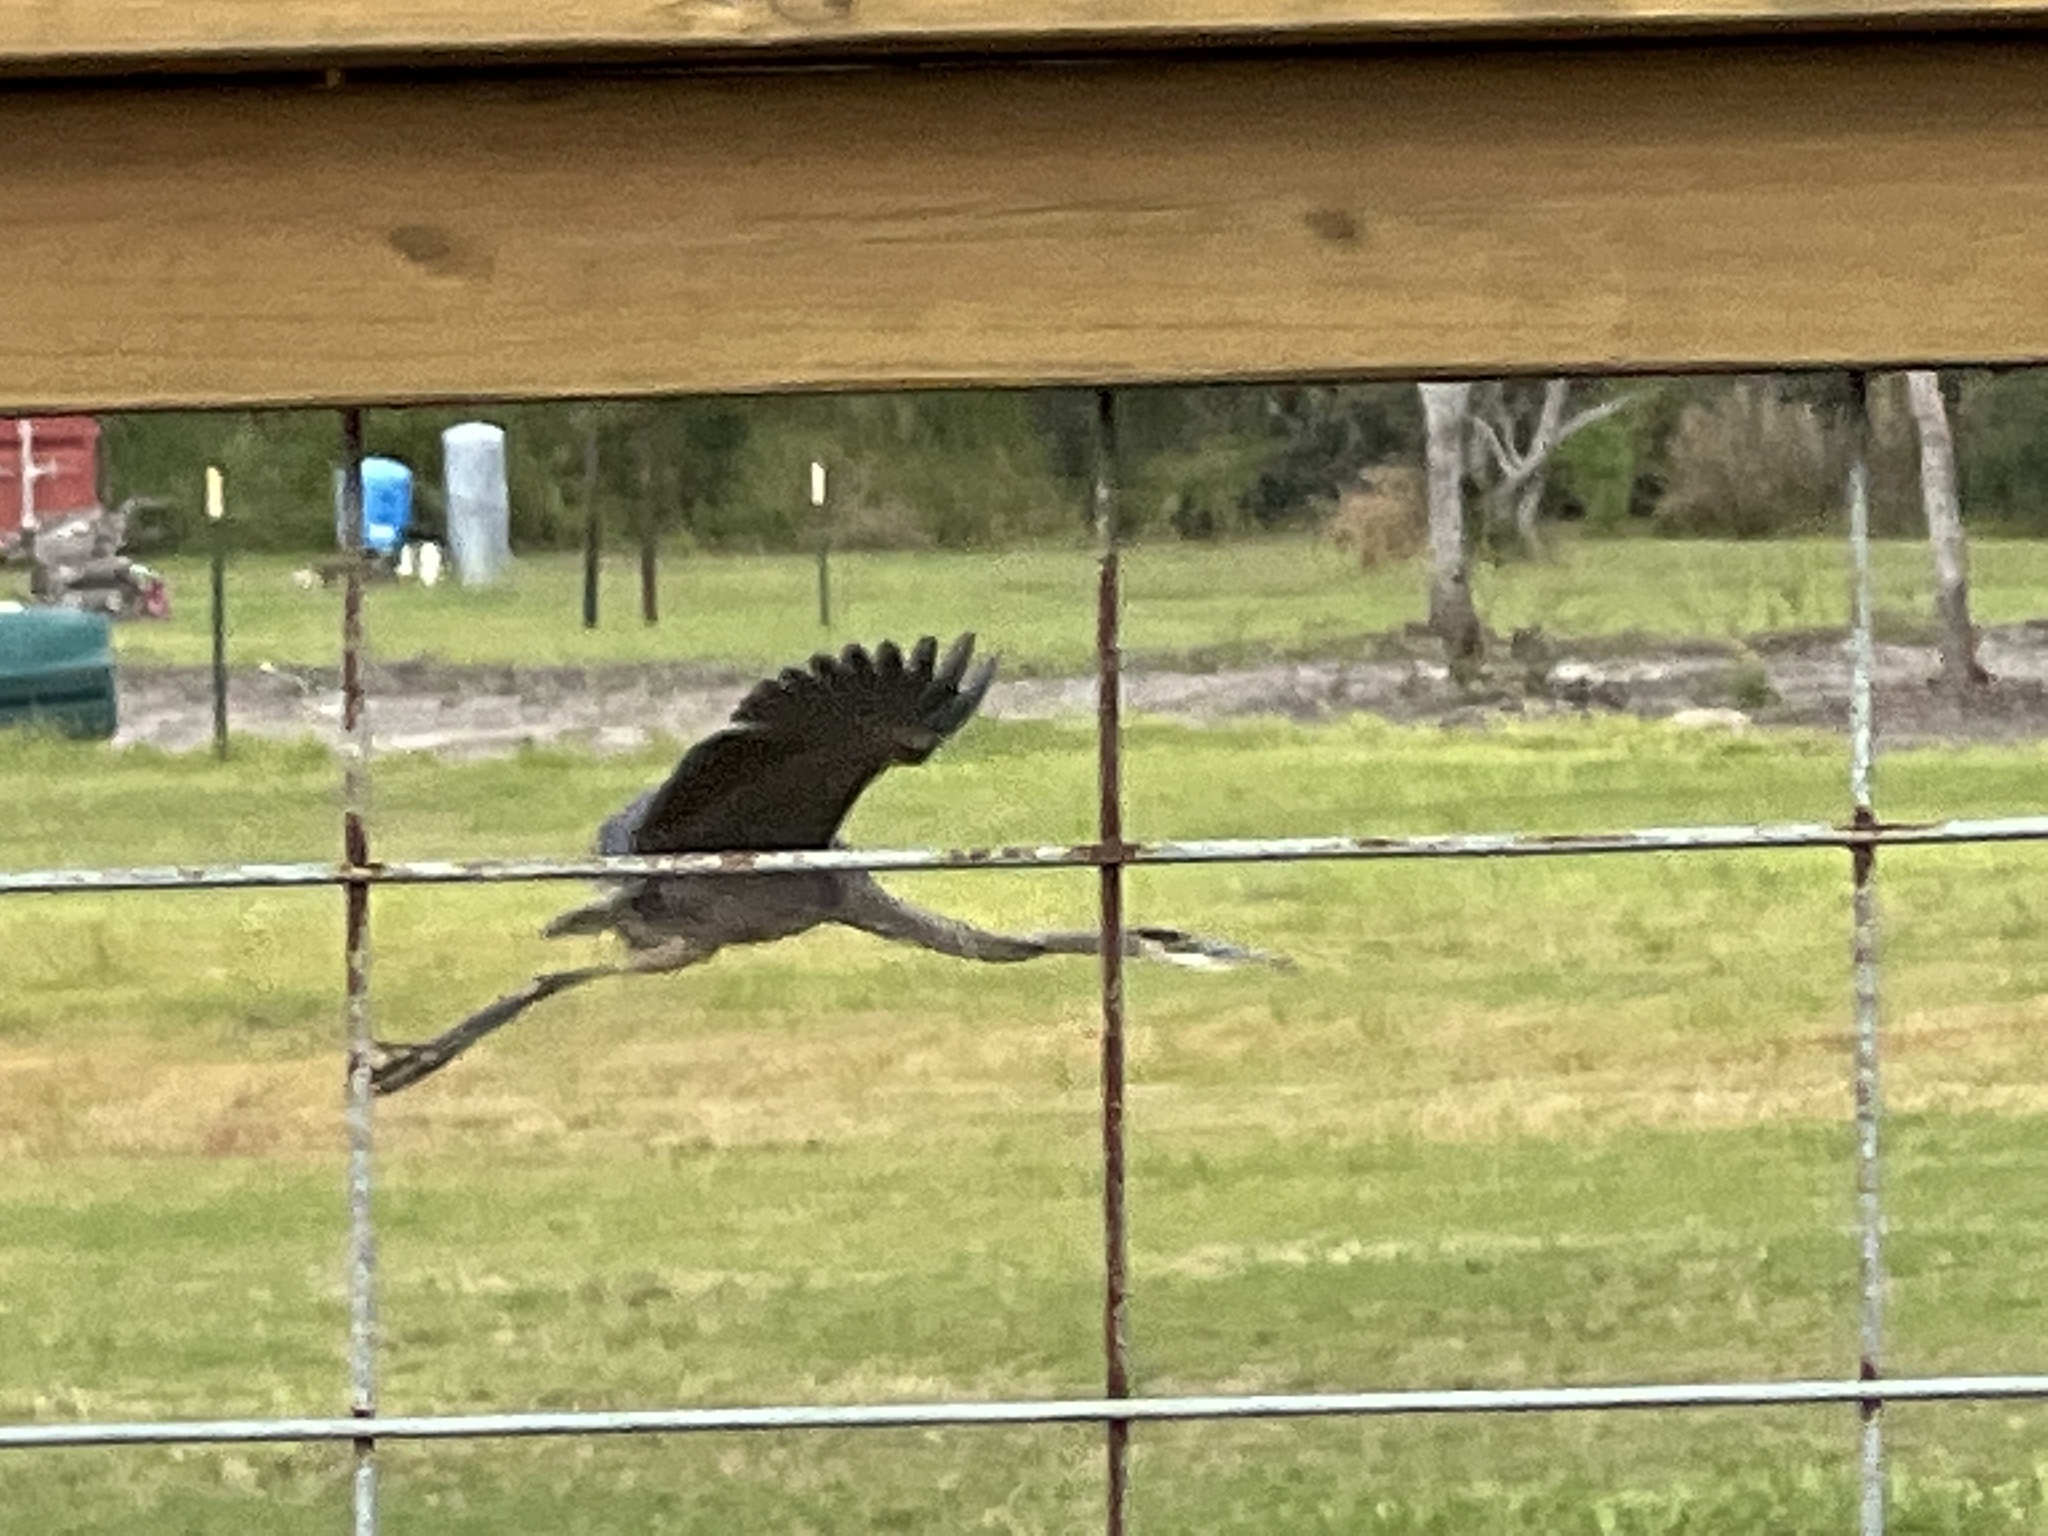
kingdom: Animalia
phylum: Chordata
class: Aves
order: Pelecaniformes
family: Ardeidae
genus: Ardea
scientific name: Ardea herodias
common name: Great blue heron
